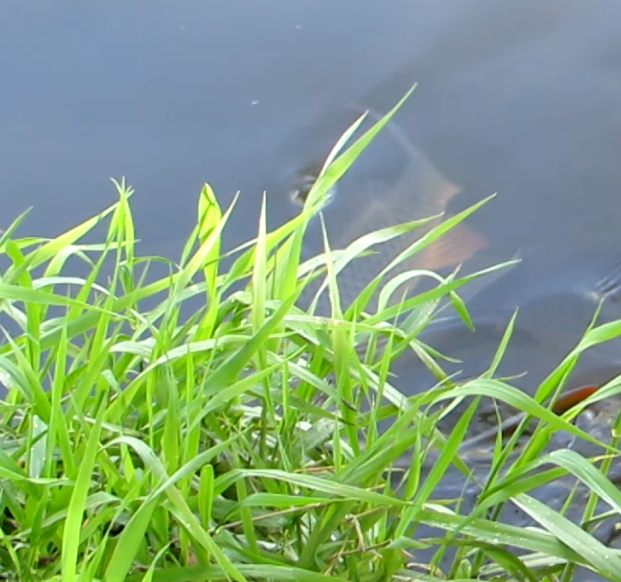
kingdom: Animalia
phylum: Chordata
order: Cypriniformes
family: Cyprinidae
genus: Cyprinus
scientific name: Cyprinus carpio
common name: Common carp
